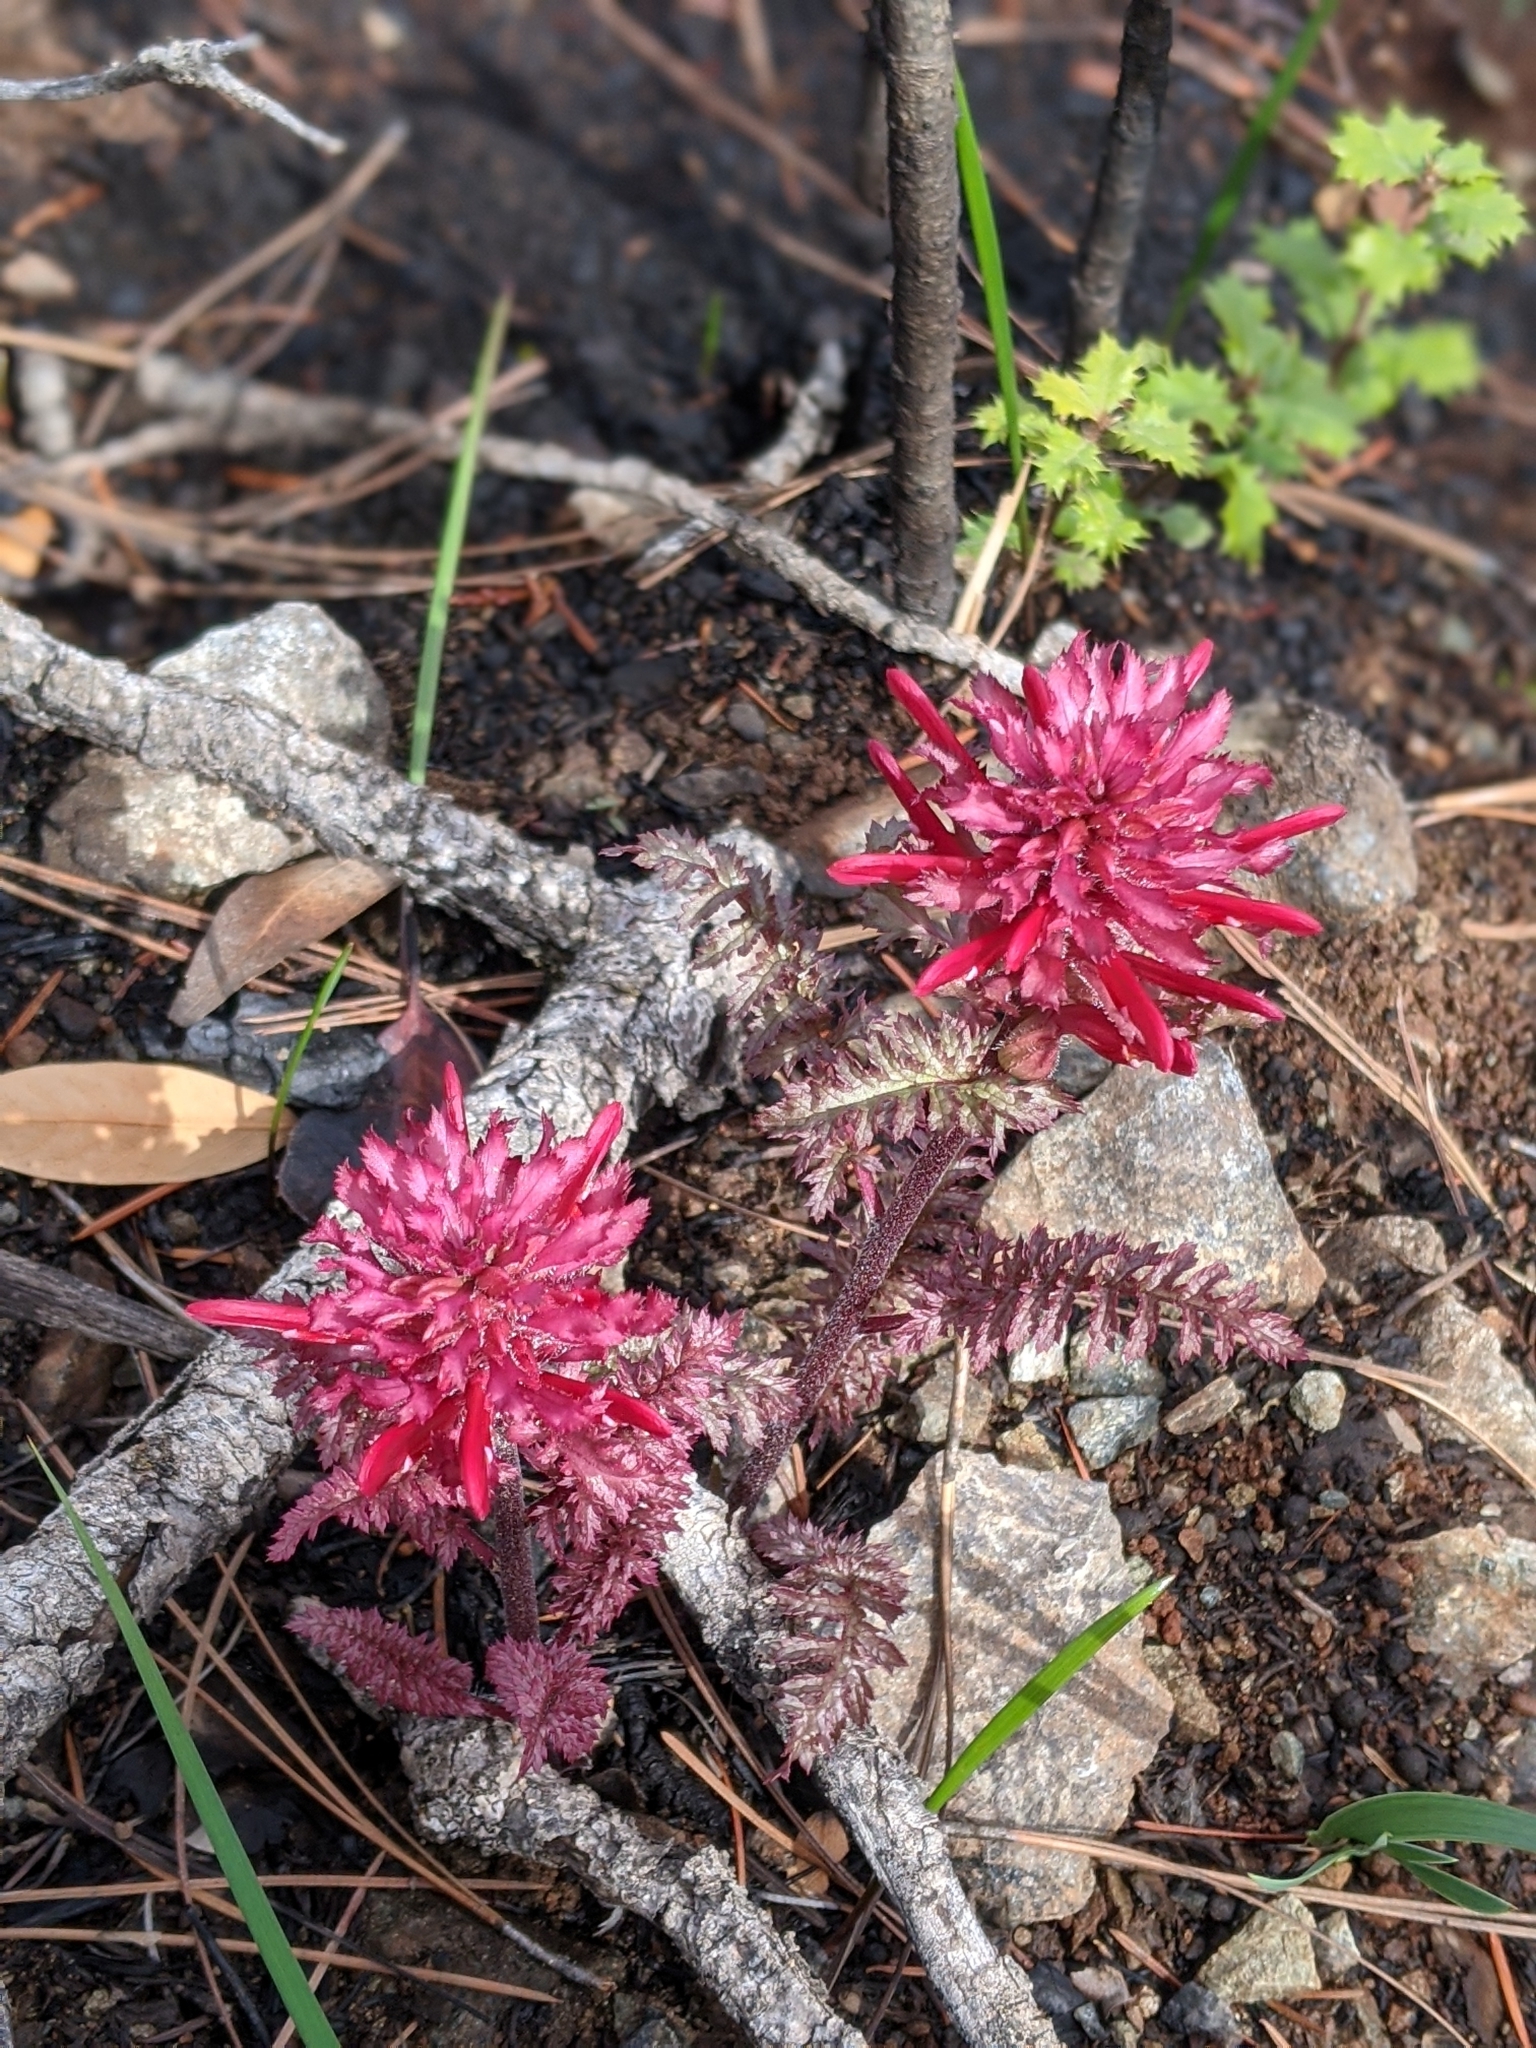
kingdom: Plantae
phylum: Tracheophyta
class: Magnoliopsida
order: Lamiales
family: Orobanchaceae
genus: Pedicularis
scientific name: Pedicularis densiflora
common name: Indian warrior
